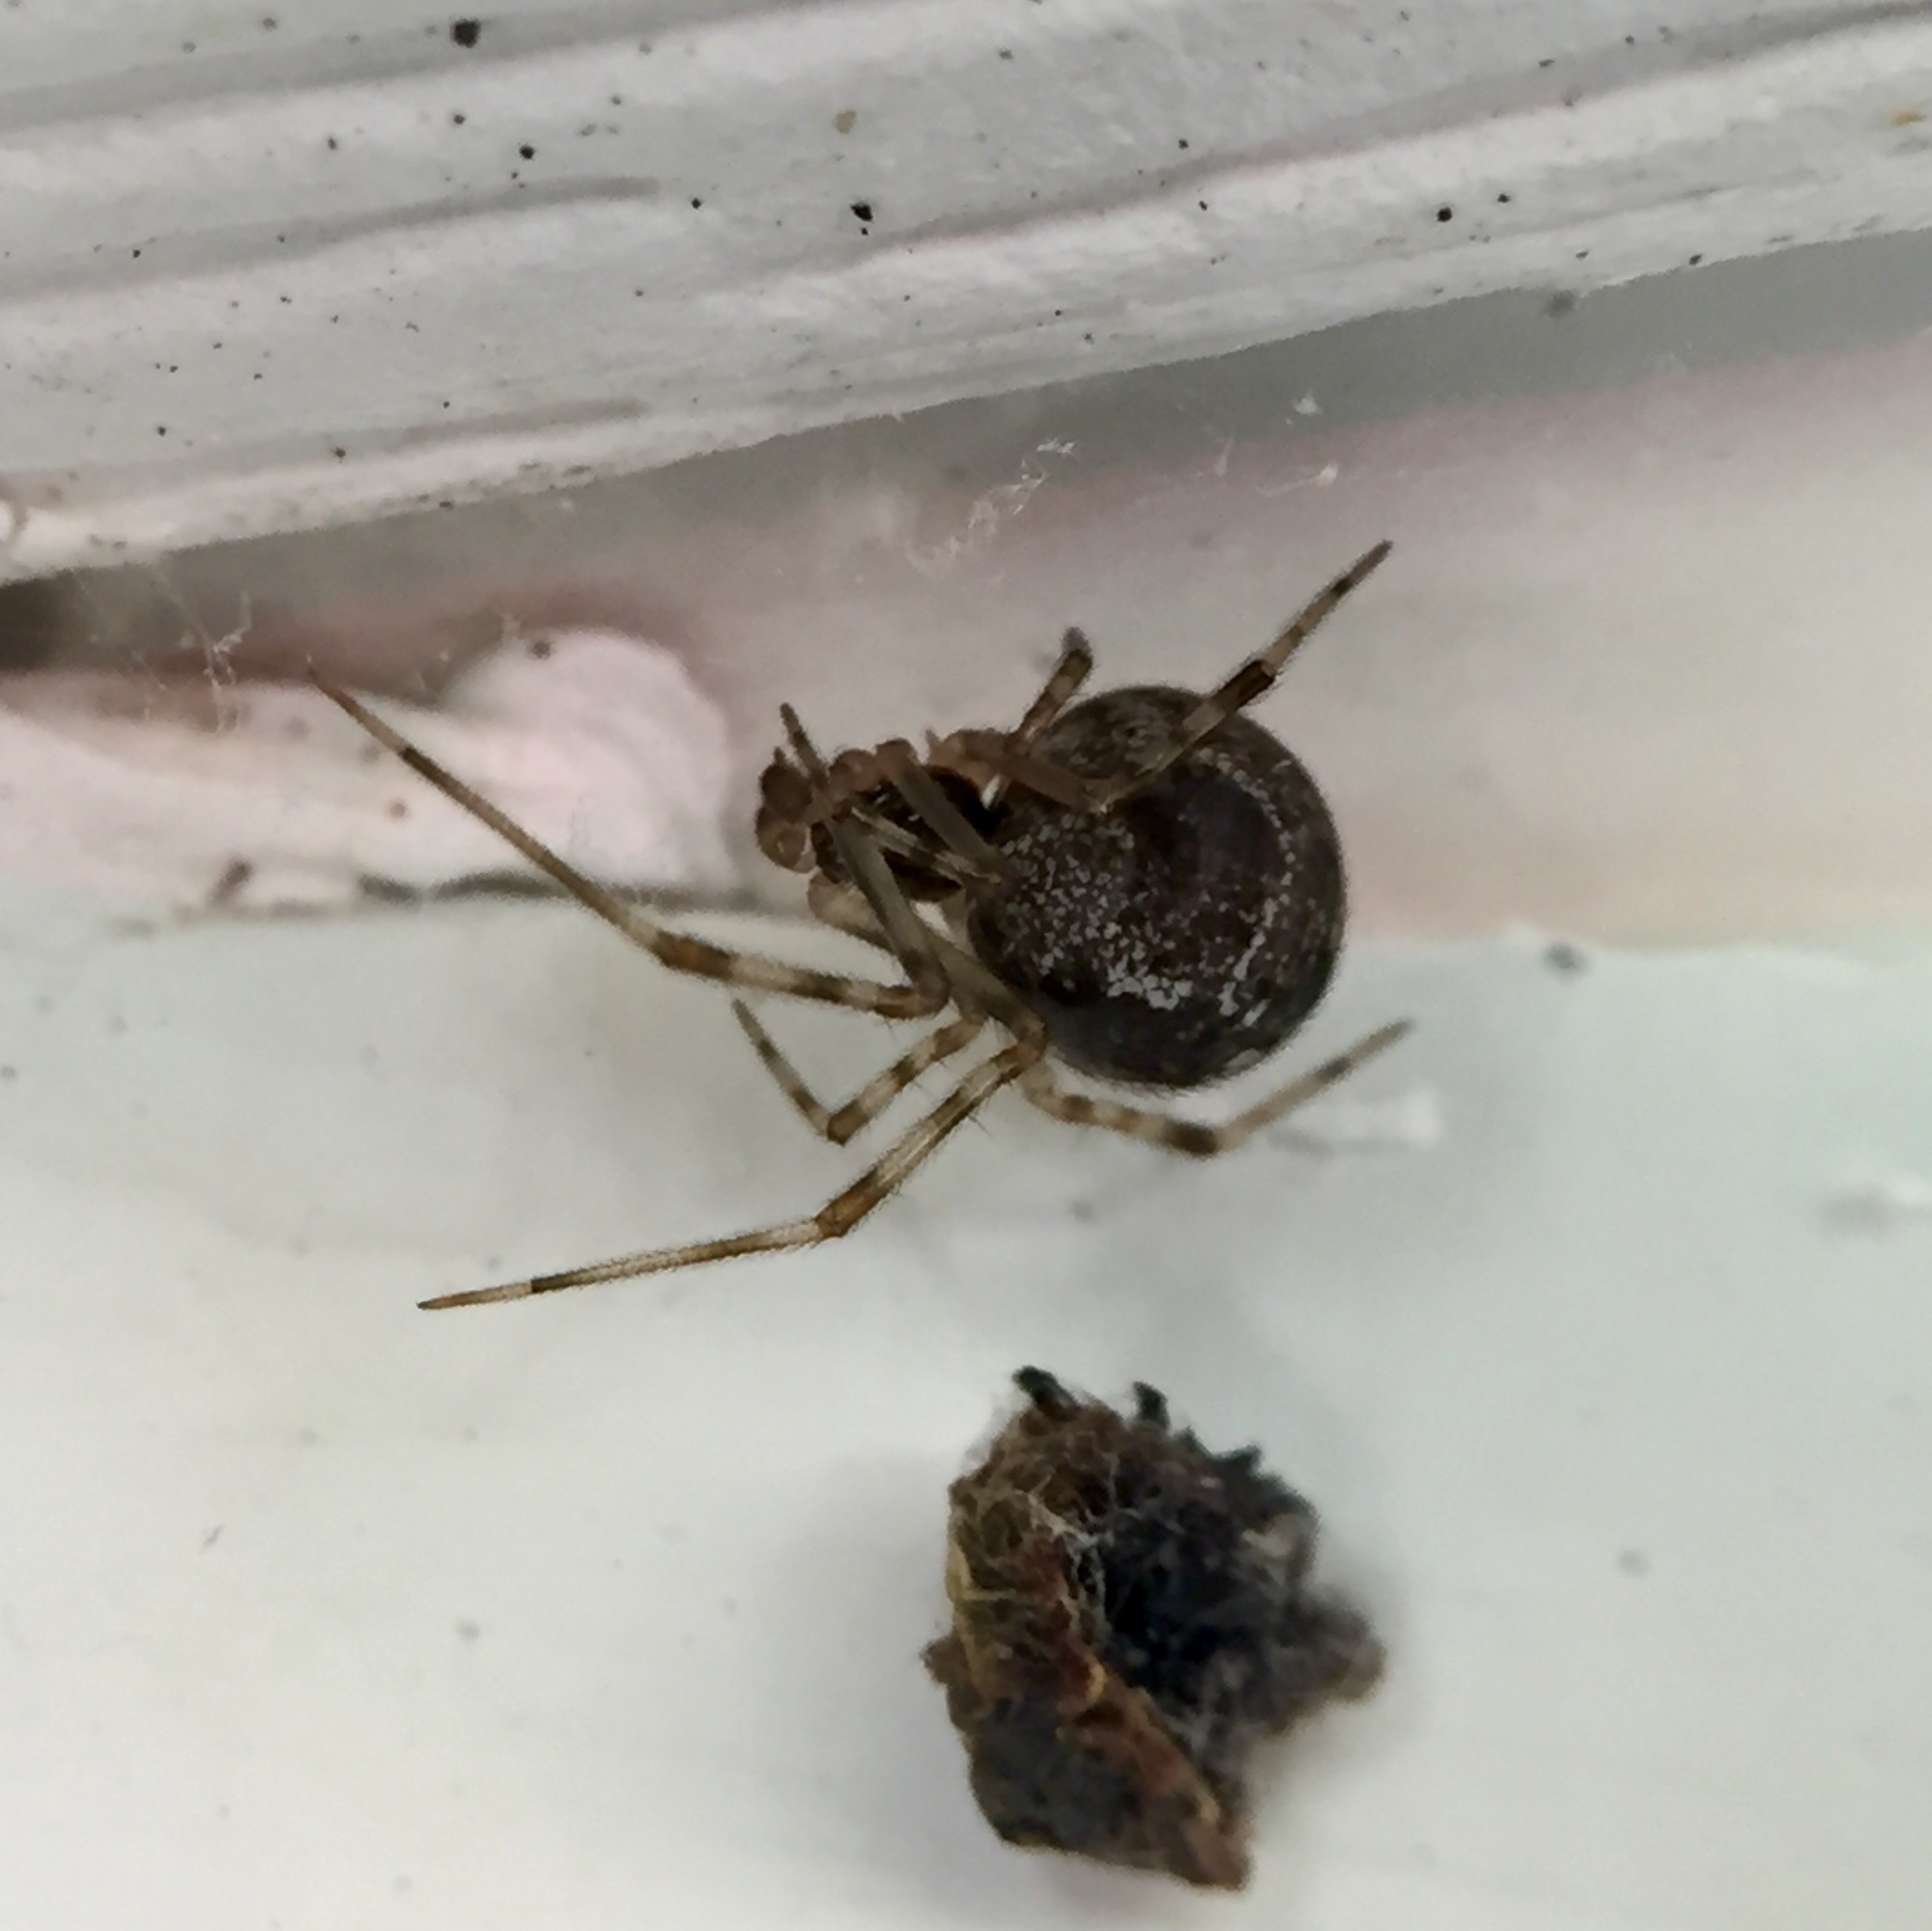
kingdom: Animalia
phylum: Arthropoda
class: Arachnida
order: Araneae
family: Theridiidae
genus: Parasteatoda
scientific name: Parasteatoda tepidariorum
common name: Common house spider
